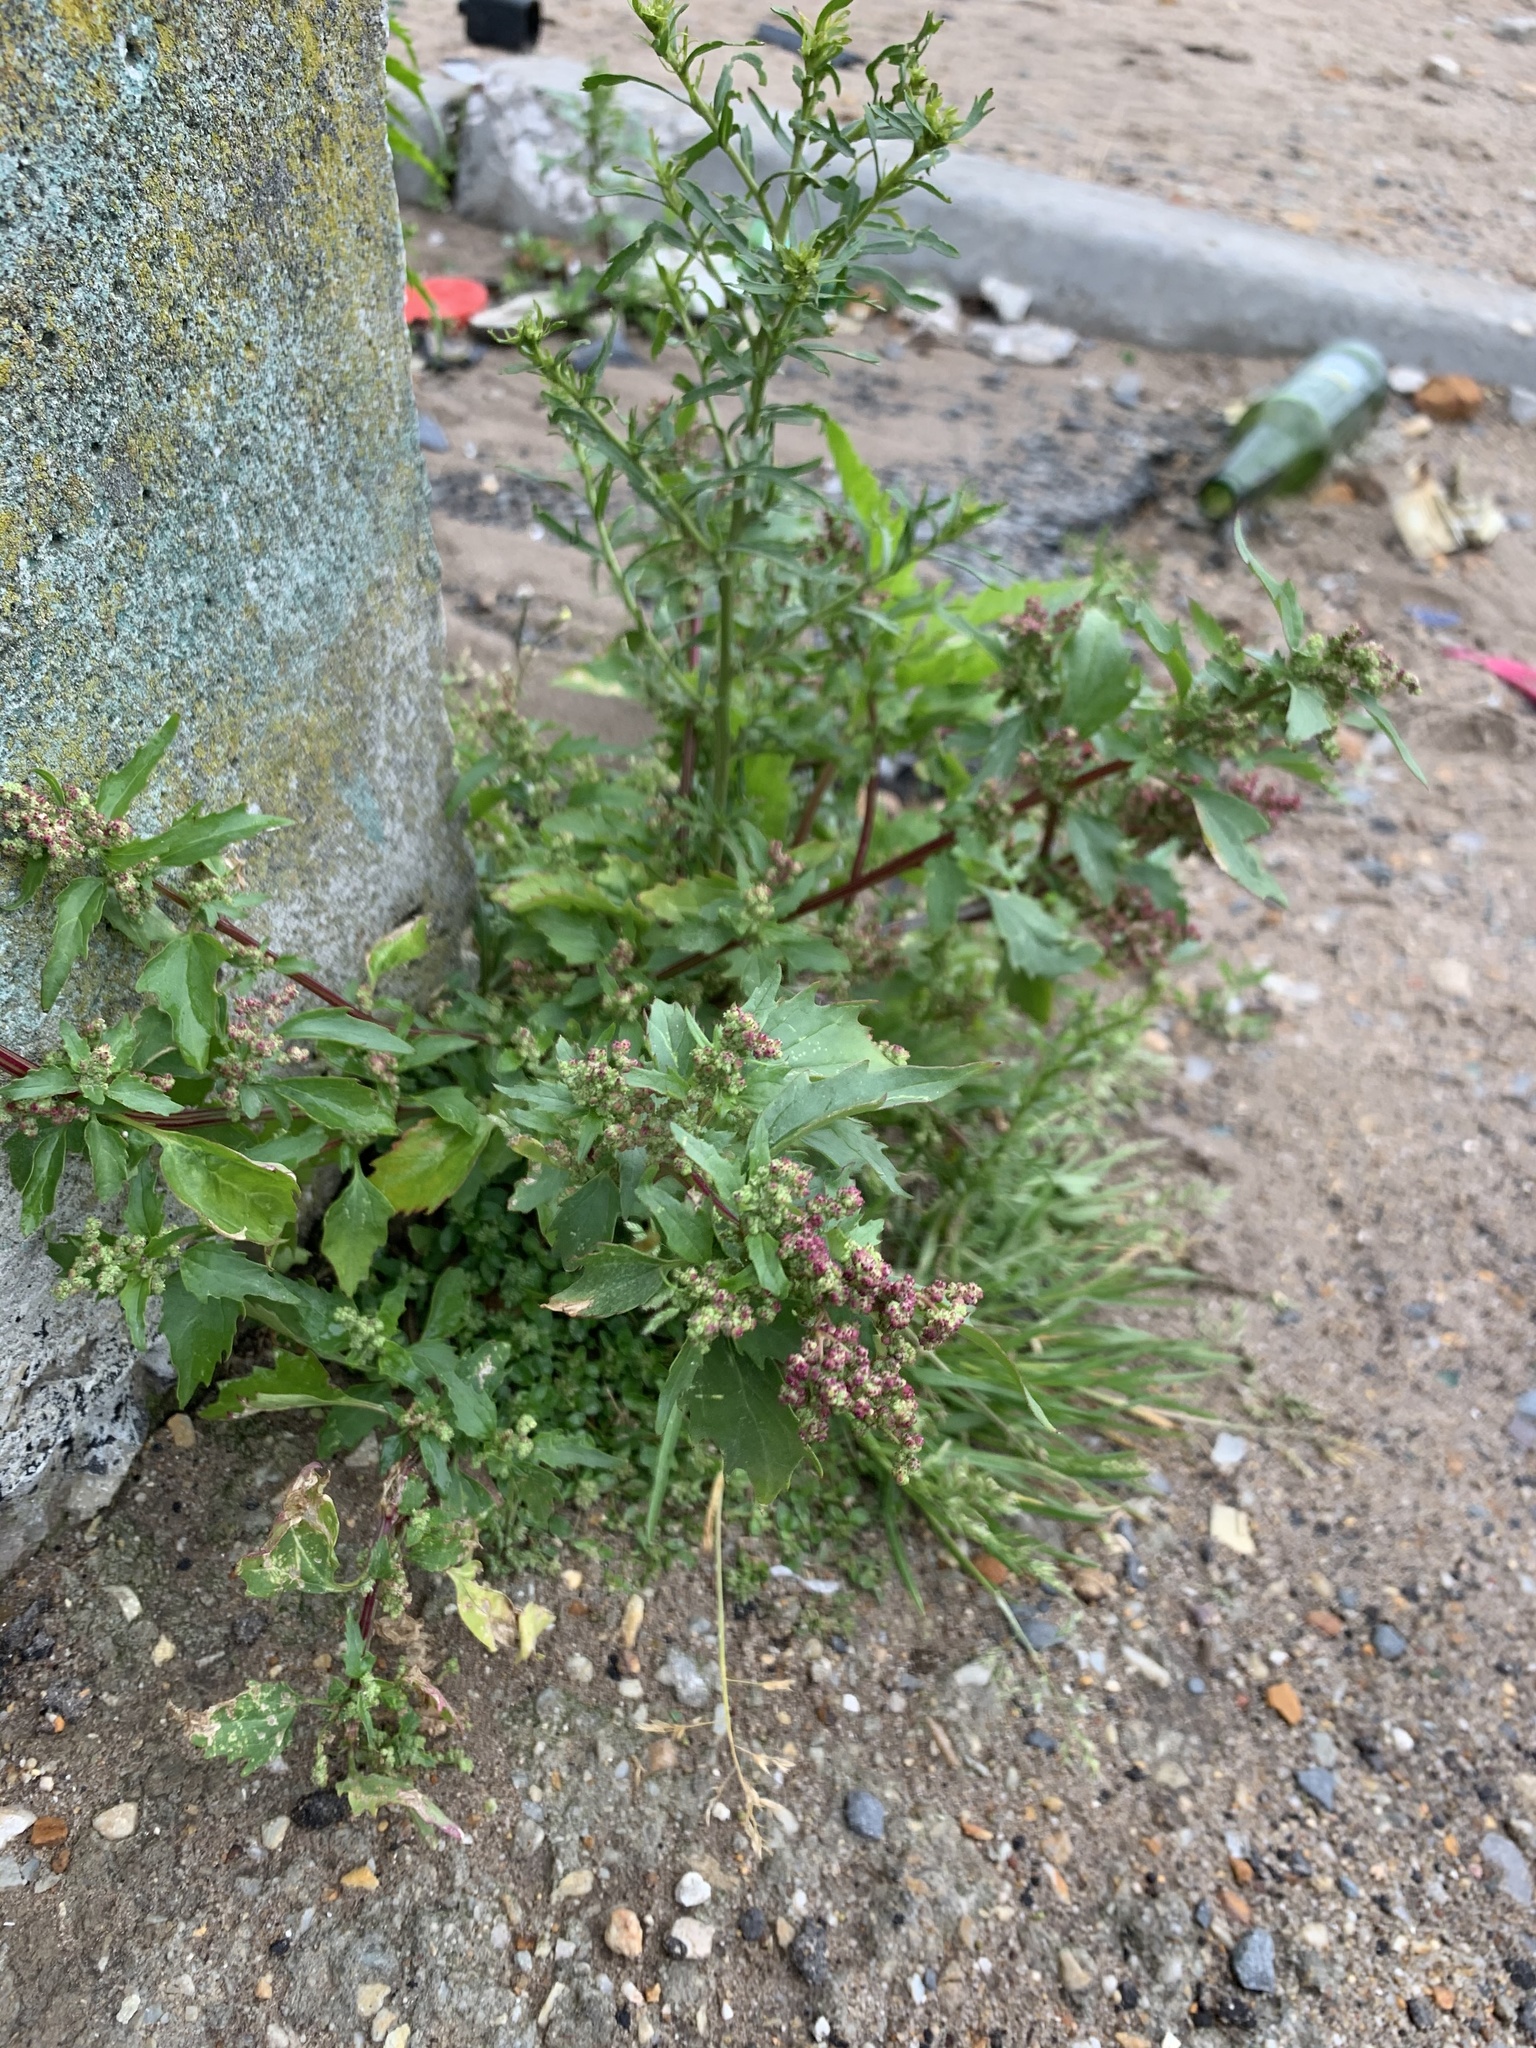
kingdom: Plantae
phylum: Tracheophyta
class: Magnoliopsida
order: Caryophyllales
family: Amaranthaceae
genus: Chenopodiastrum
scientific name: Chenopodiastrum murale
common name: Sowbane
